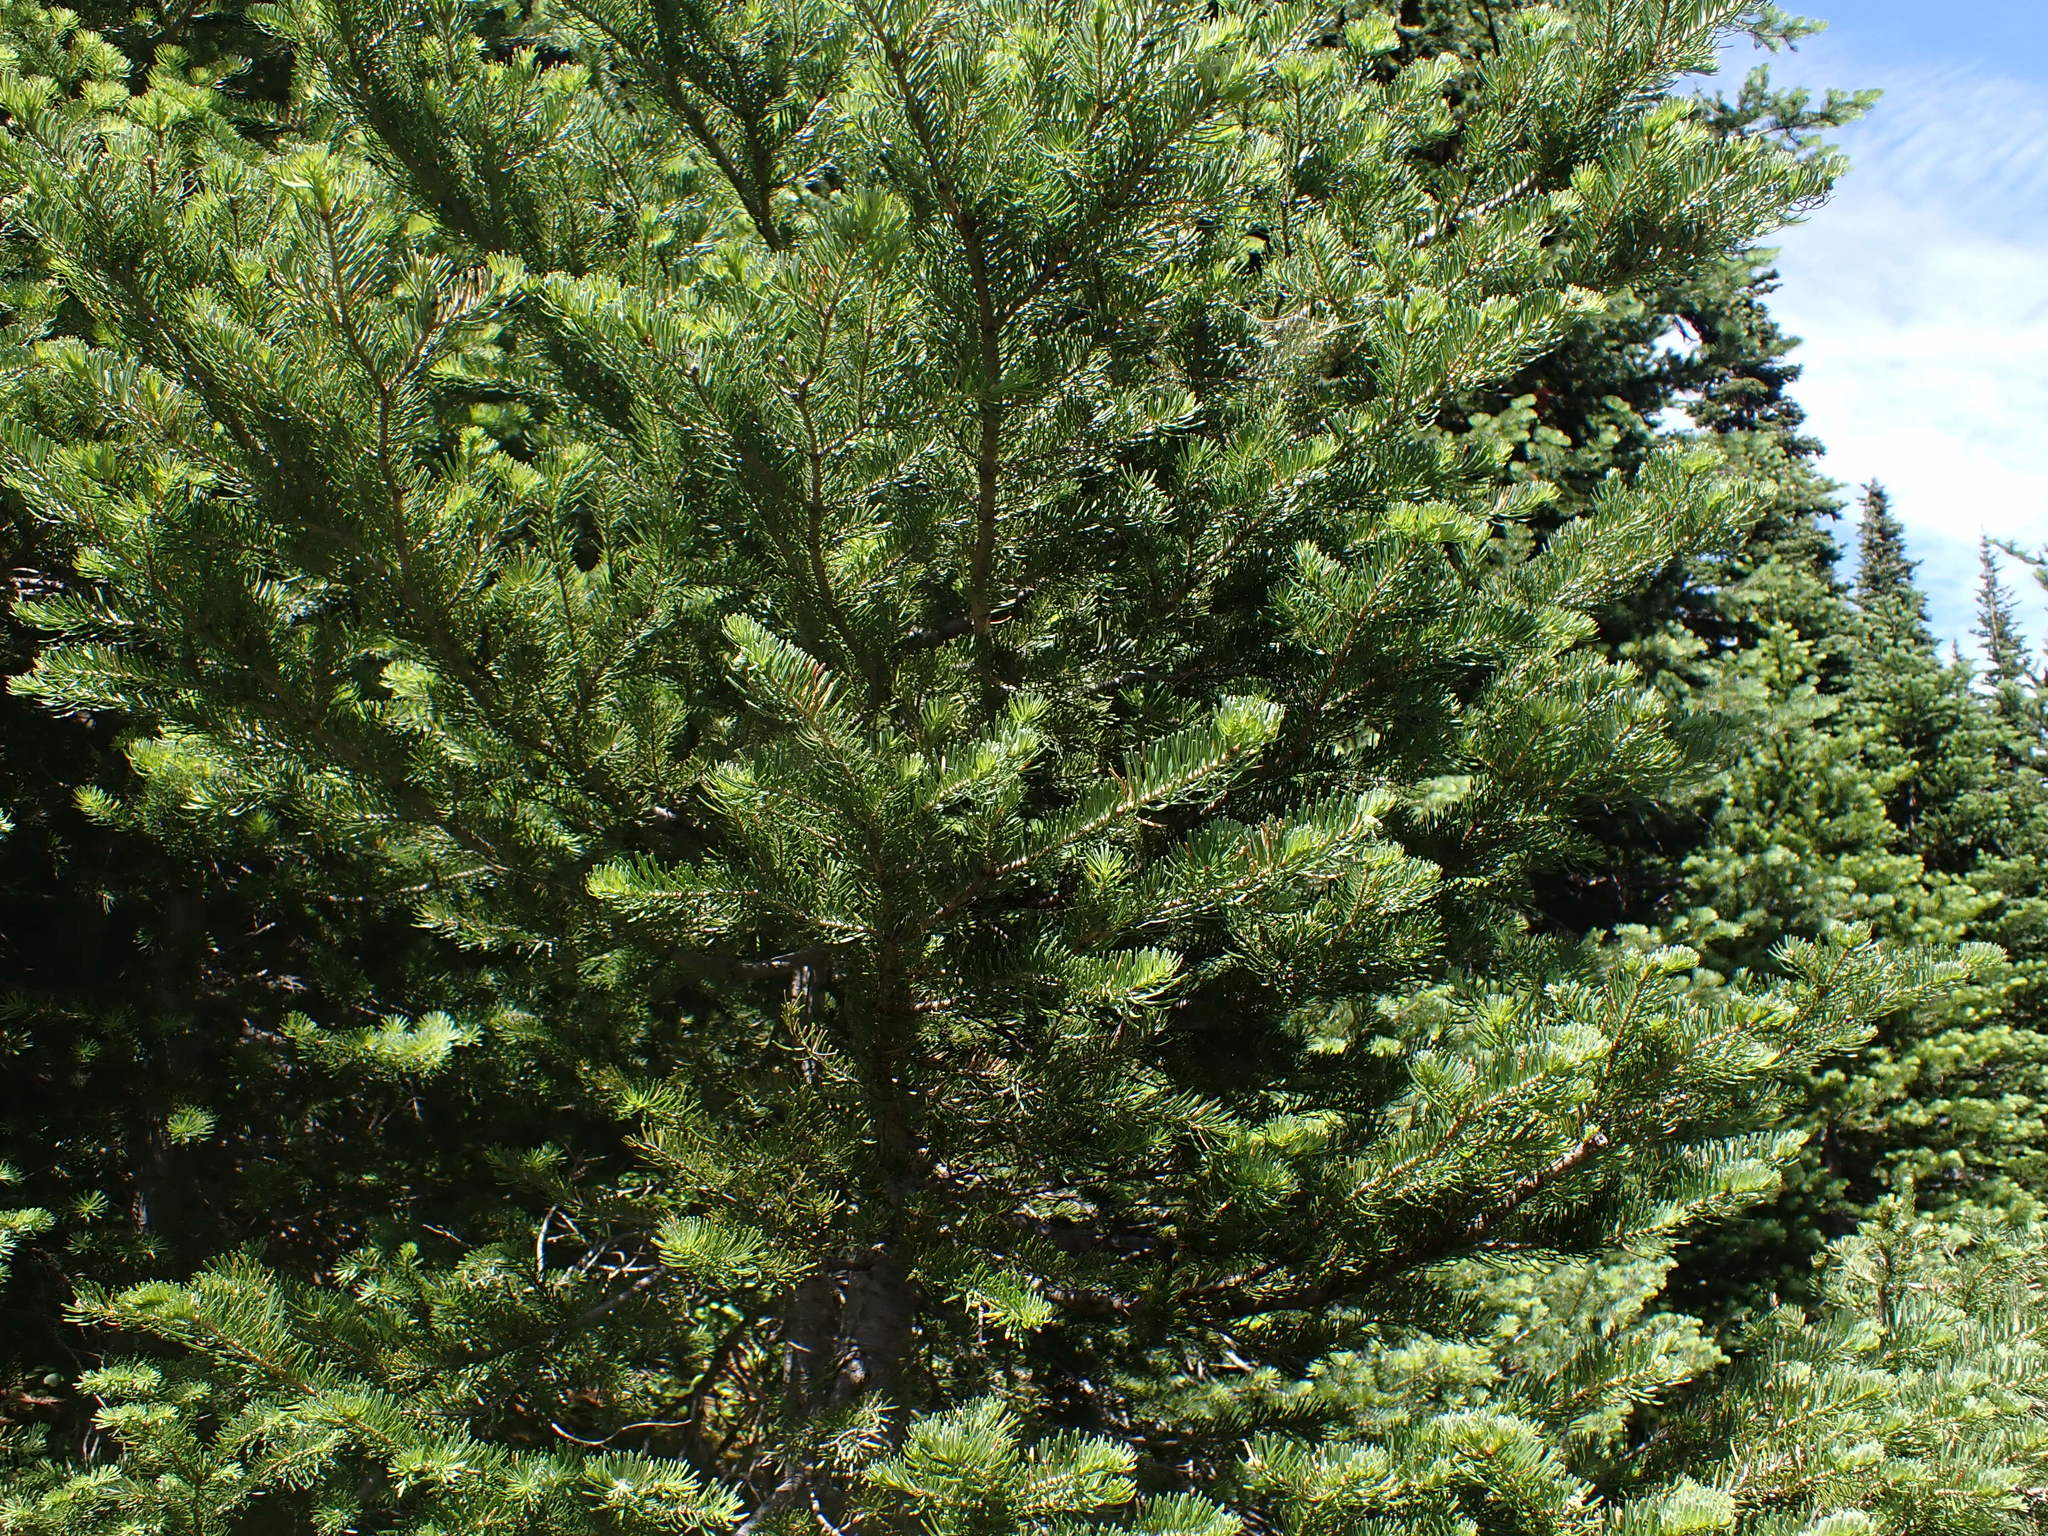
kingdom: Plantae
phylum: Tracheophyta
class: Pinopsida
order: Pinales
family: Pinaceae
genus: Abies
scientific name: Abies lasiocarpa
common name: Subalpine fir
